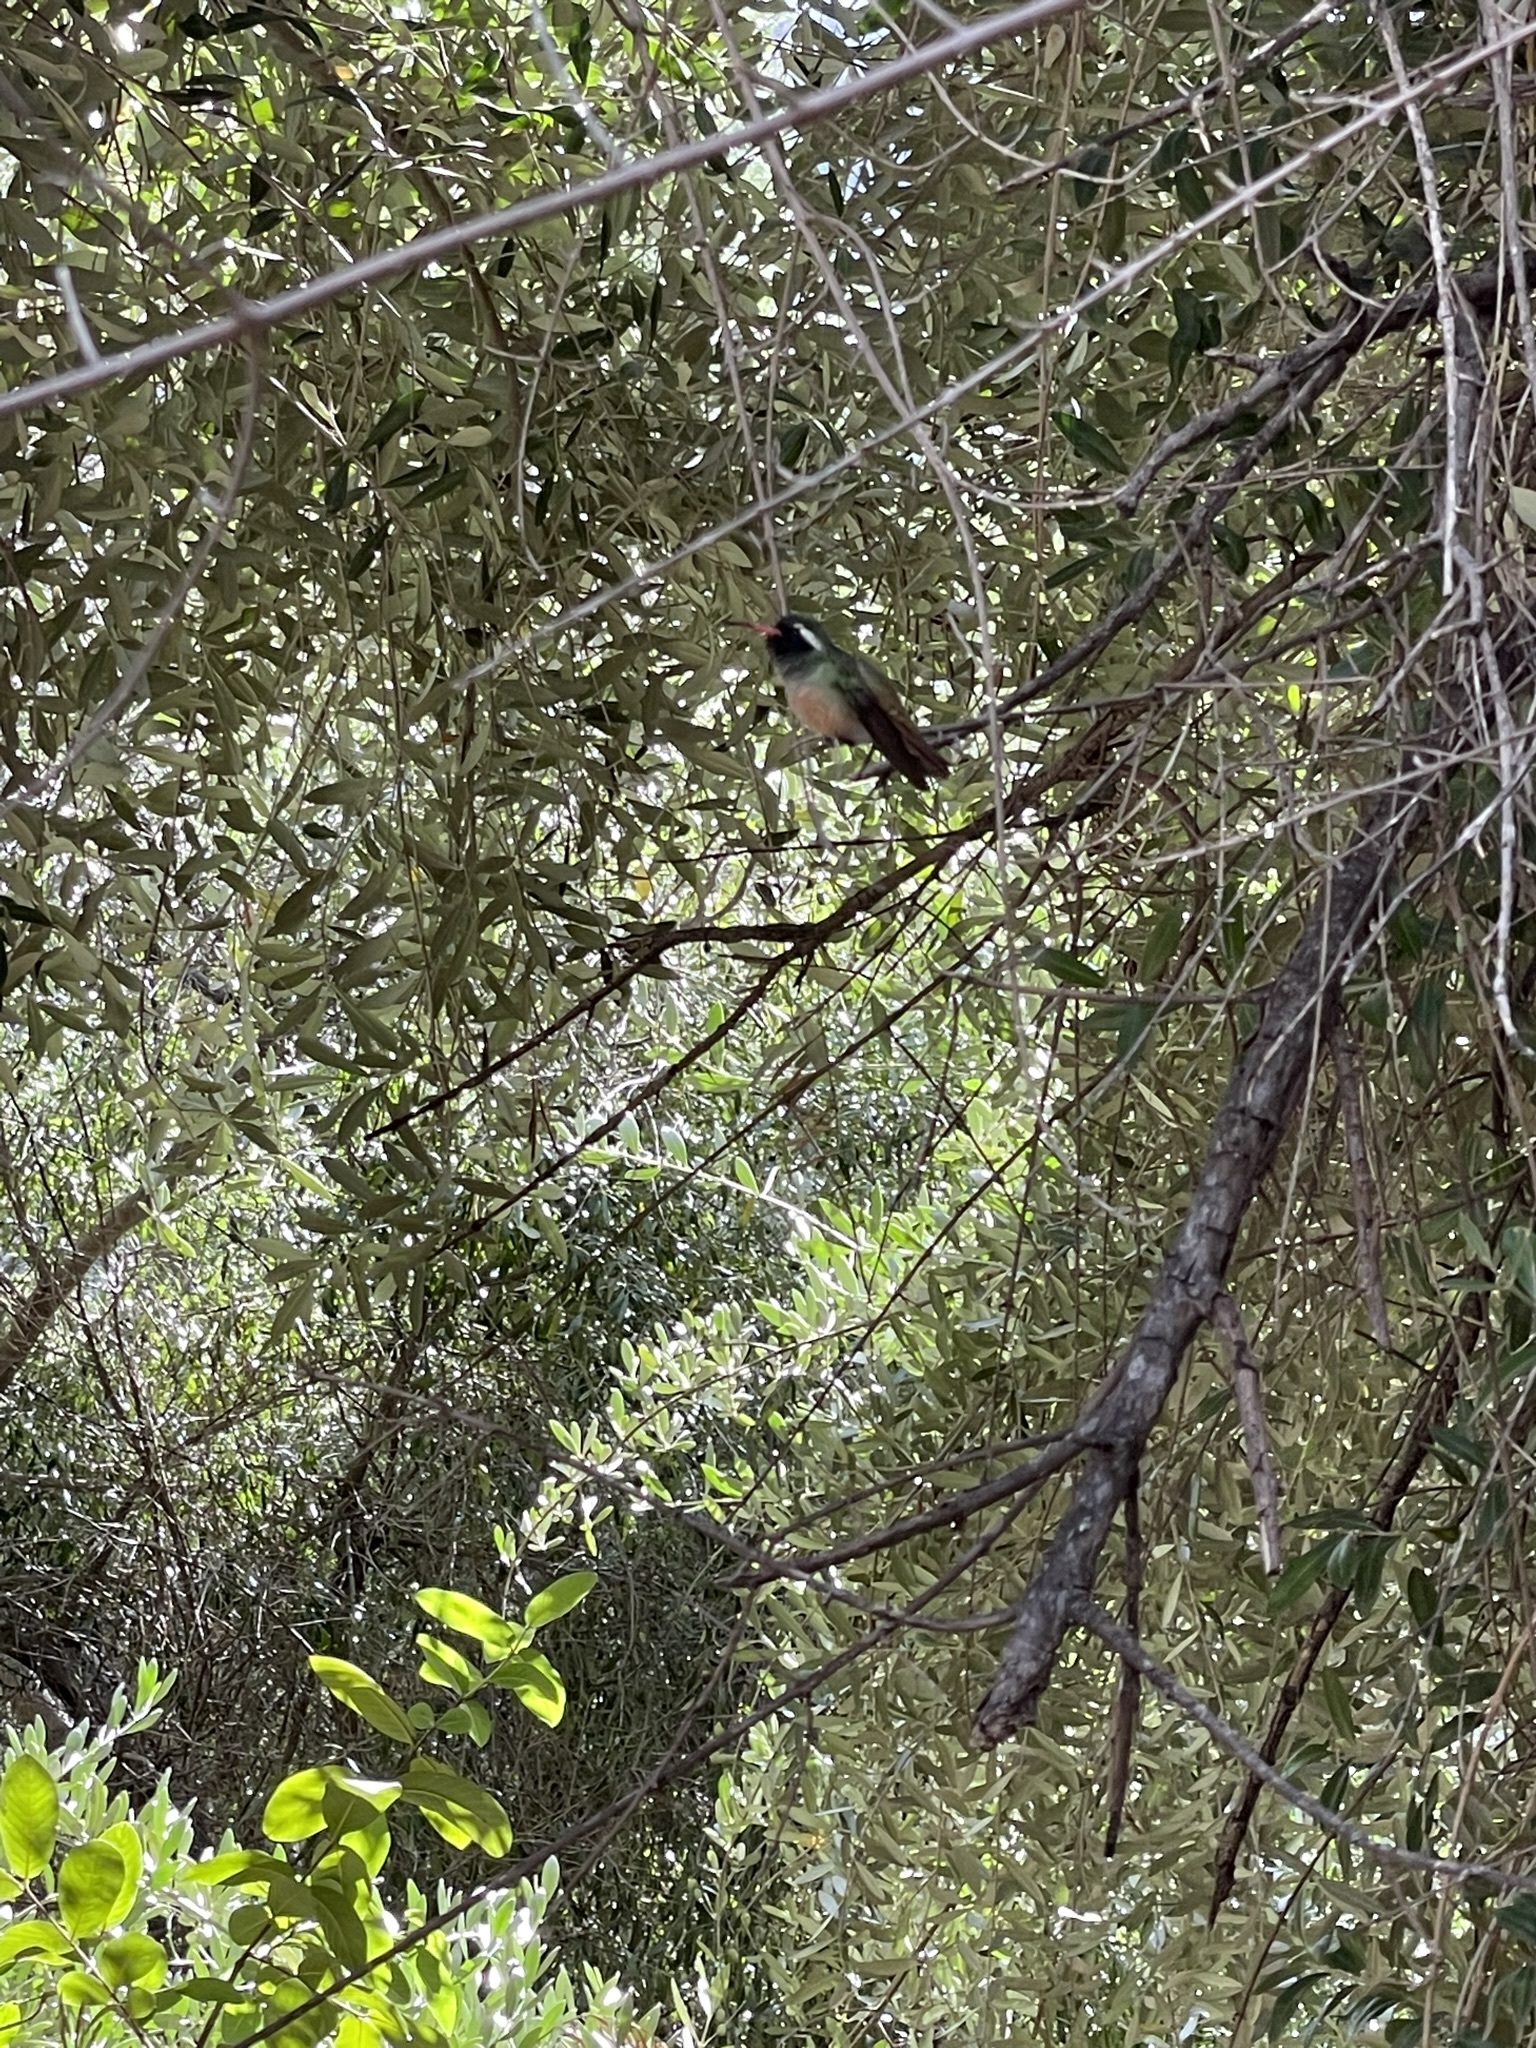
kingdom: Animalia
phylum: Chordata
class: Aves
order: Apodiformes
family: Trochilidae
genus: Basilinna
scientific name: Basilinna xantusii
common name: Xantus's hummingbird
